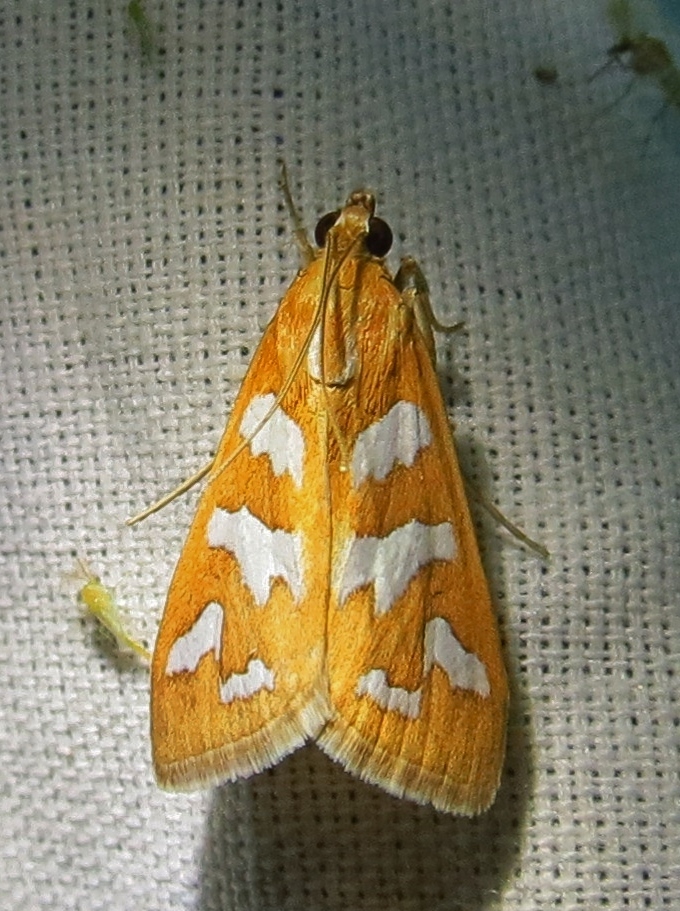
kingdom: Animalia
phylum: Arthropoda
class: Insecta
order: Lepidoptera
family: Crambidae
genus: Diastictis
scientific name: Diastictis fracturalis
